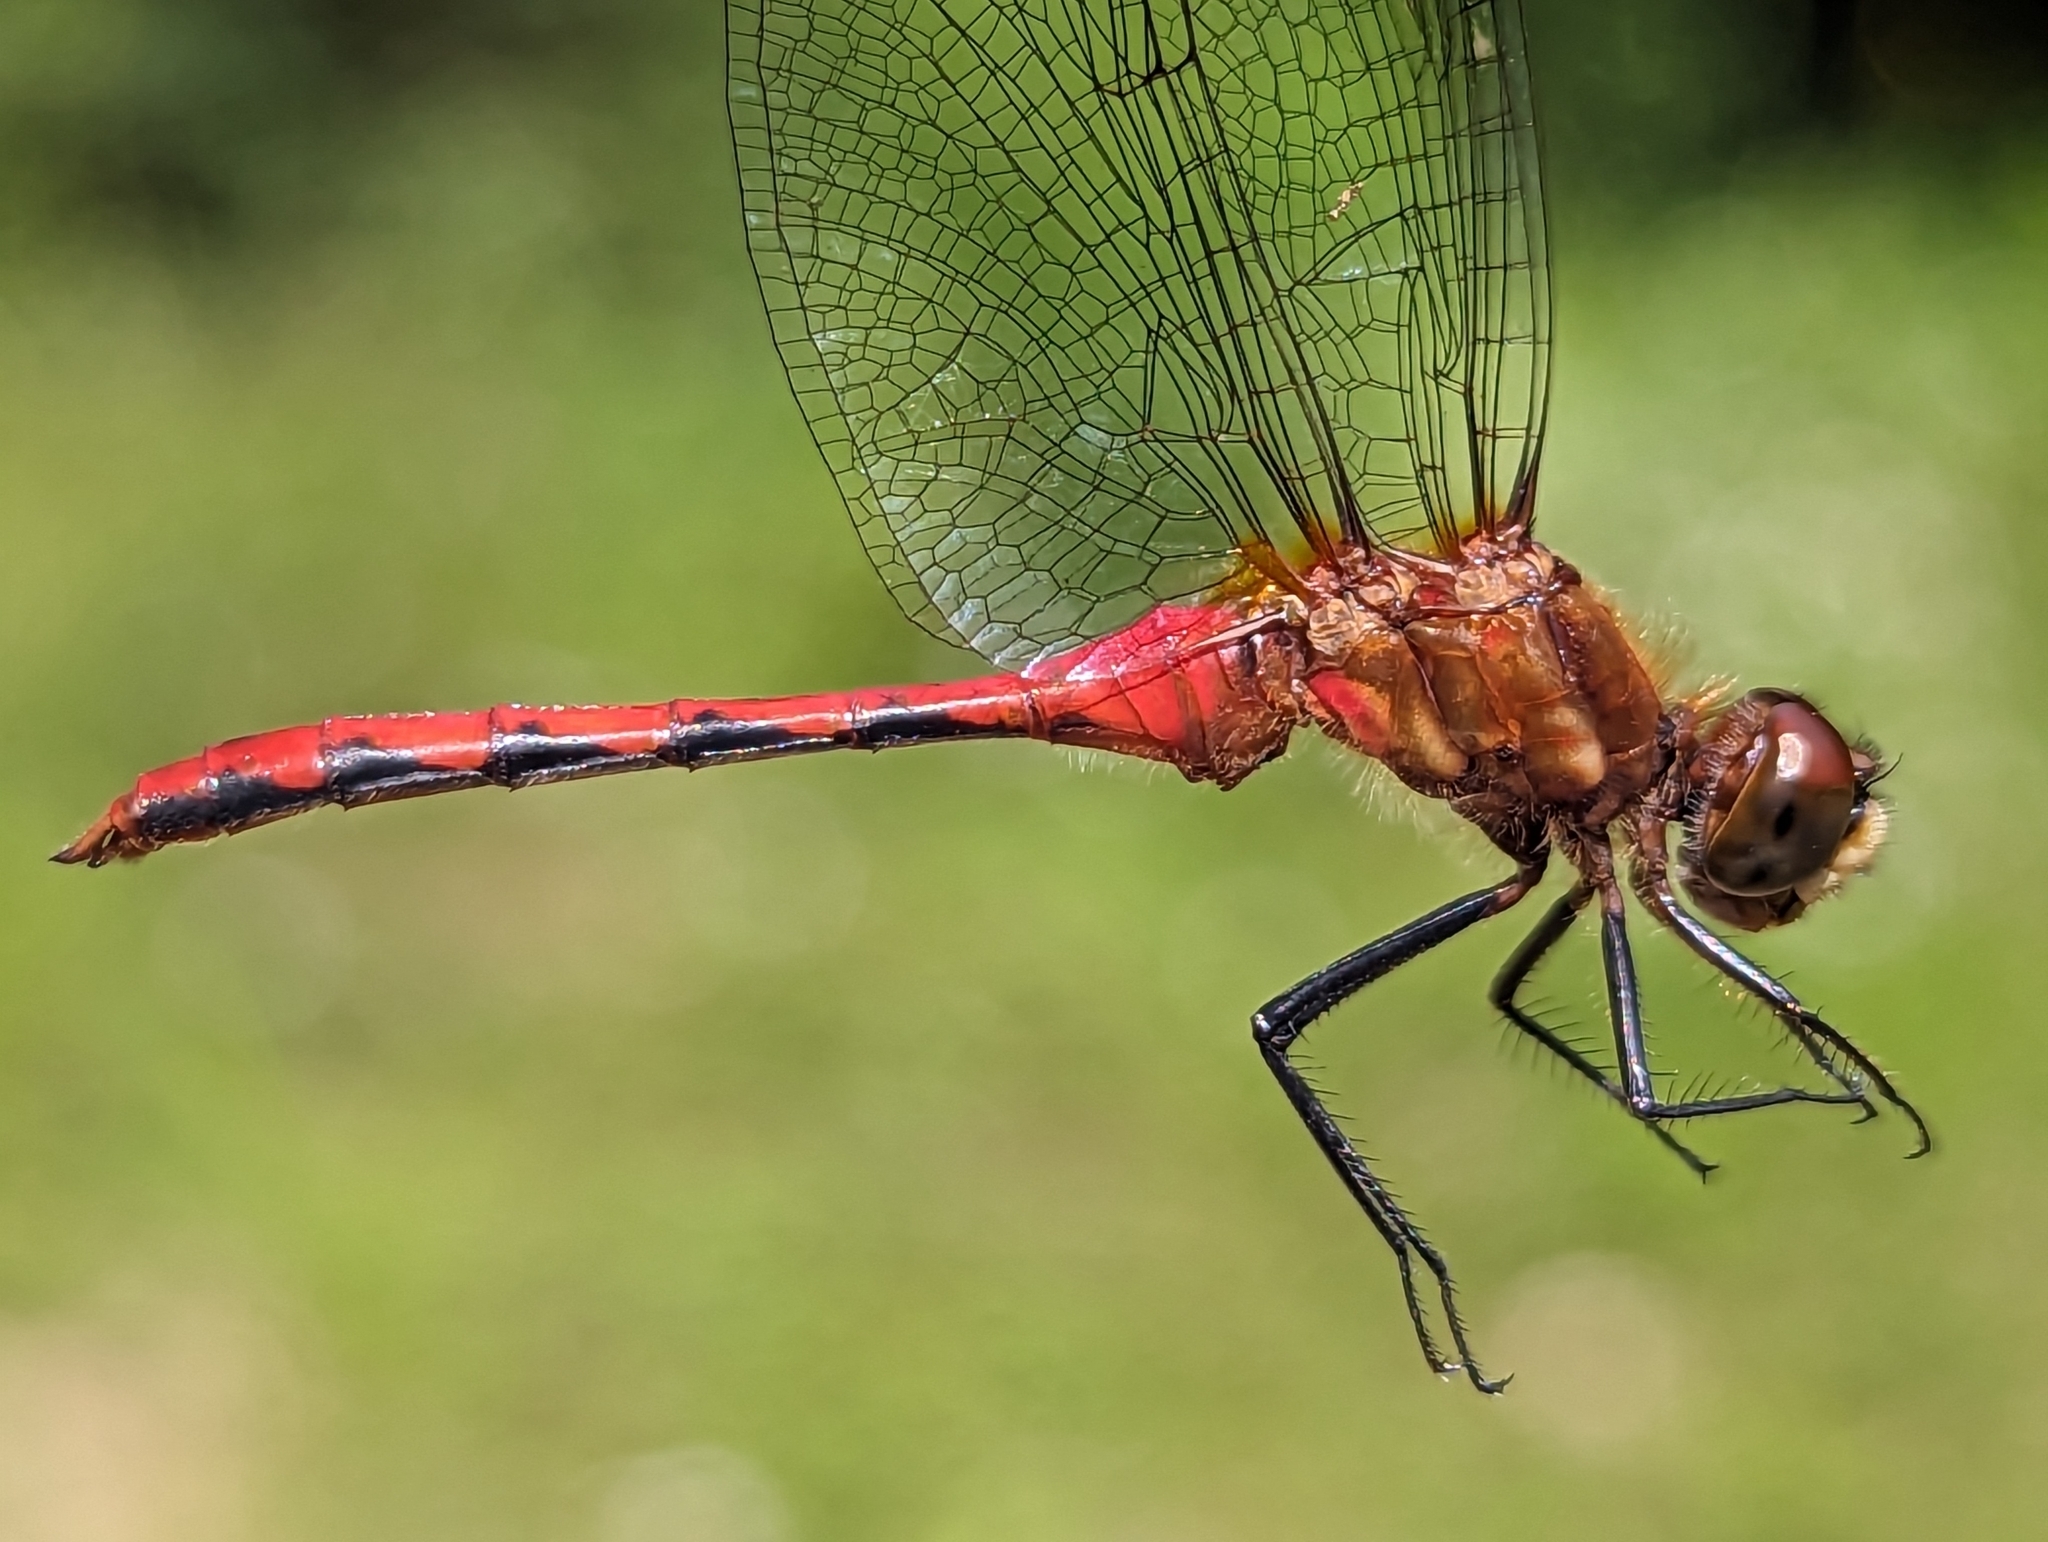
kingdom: Animalia
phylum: Arthropoda
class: Insecta
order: Odonata
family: Libellulidae
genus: Sympetrum
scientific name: Sympetrum obtrusum
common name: White-faced meadowhawk
